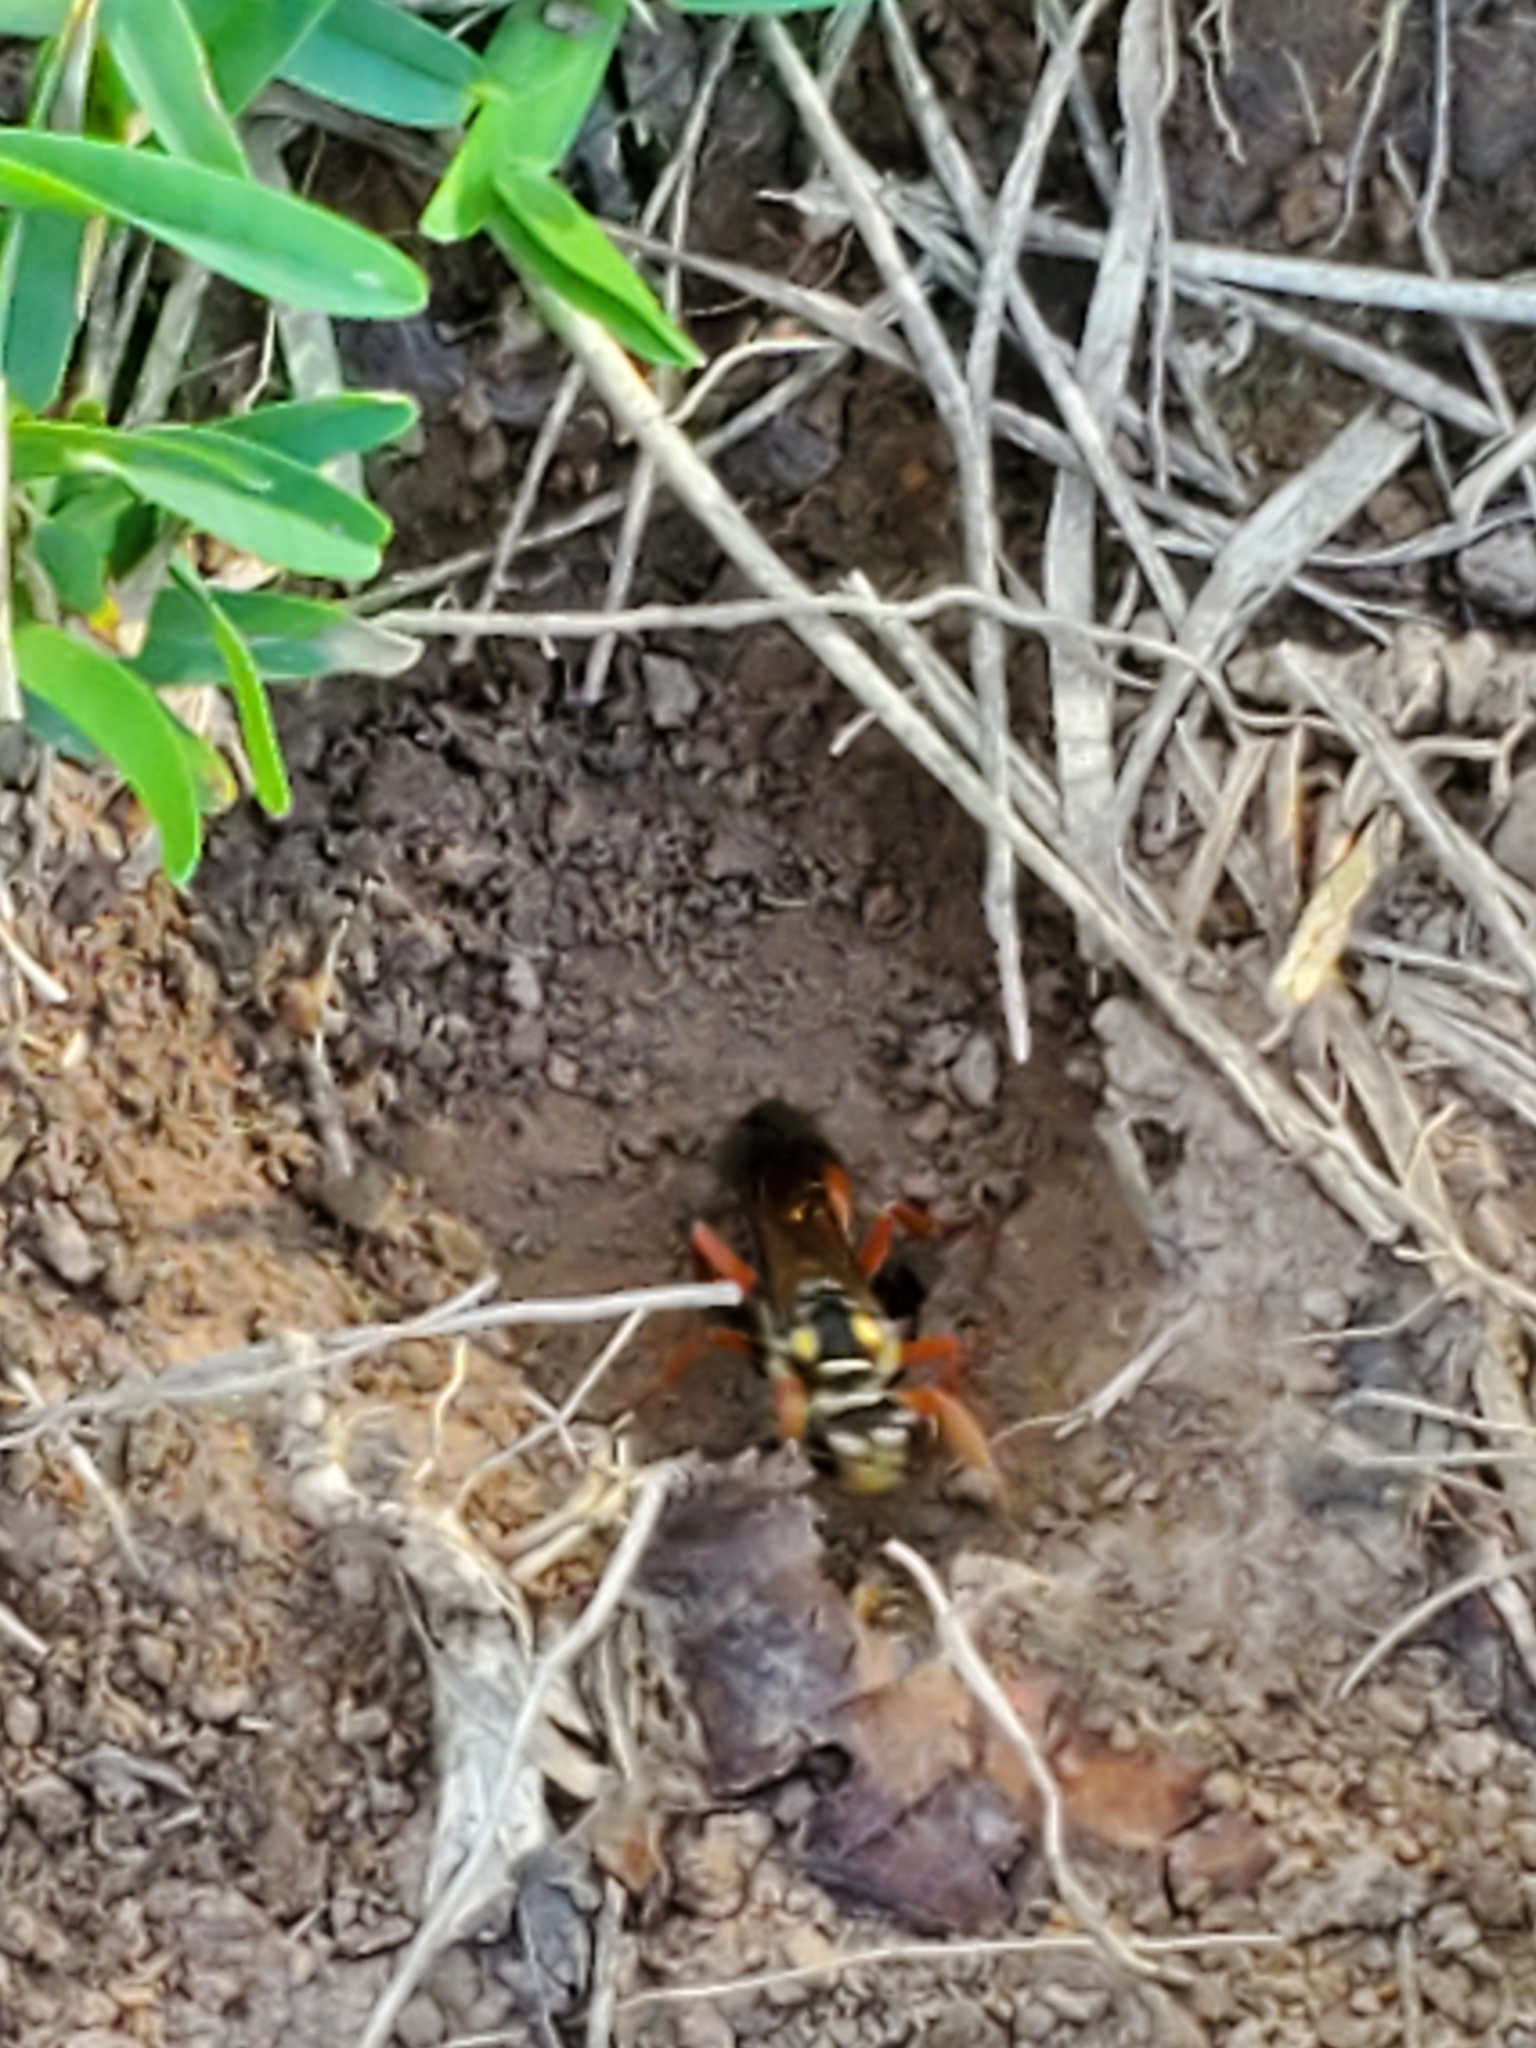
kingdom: Animalia
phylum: Arthropoda
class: Insecta
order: Hymenoptera
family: Sphecidae
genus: Sphex
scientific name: Sphex dorsalis
